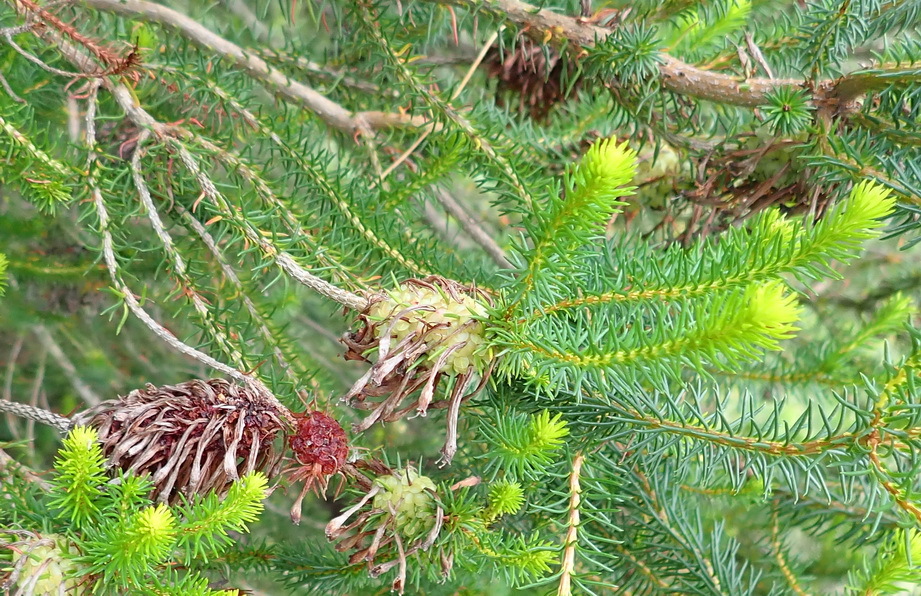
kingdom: Plantae
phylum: Tracheophyta
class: Magnoliopsida
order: Ericales
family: Ericaceae
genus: Erica
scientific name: Erica sessiliflora
